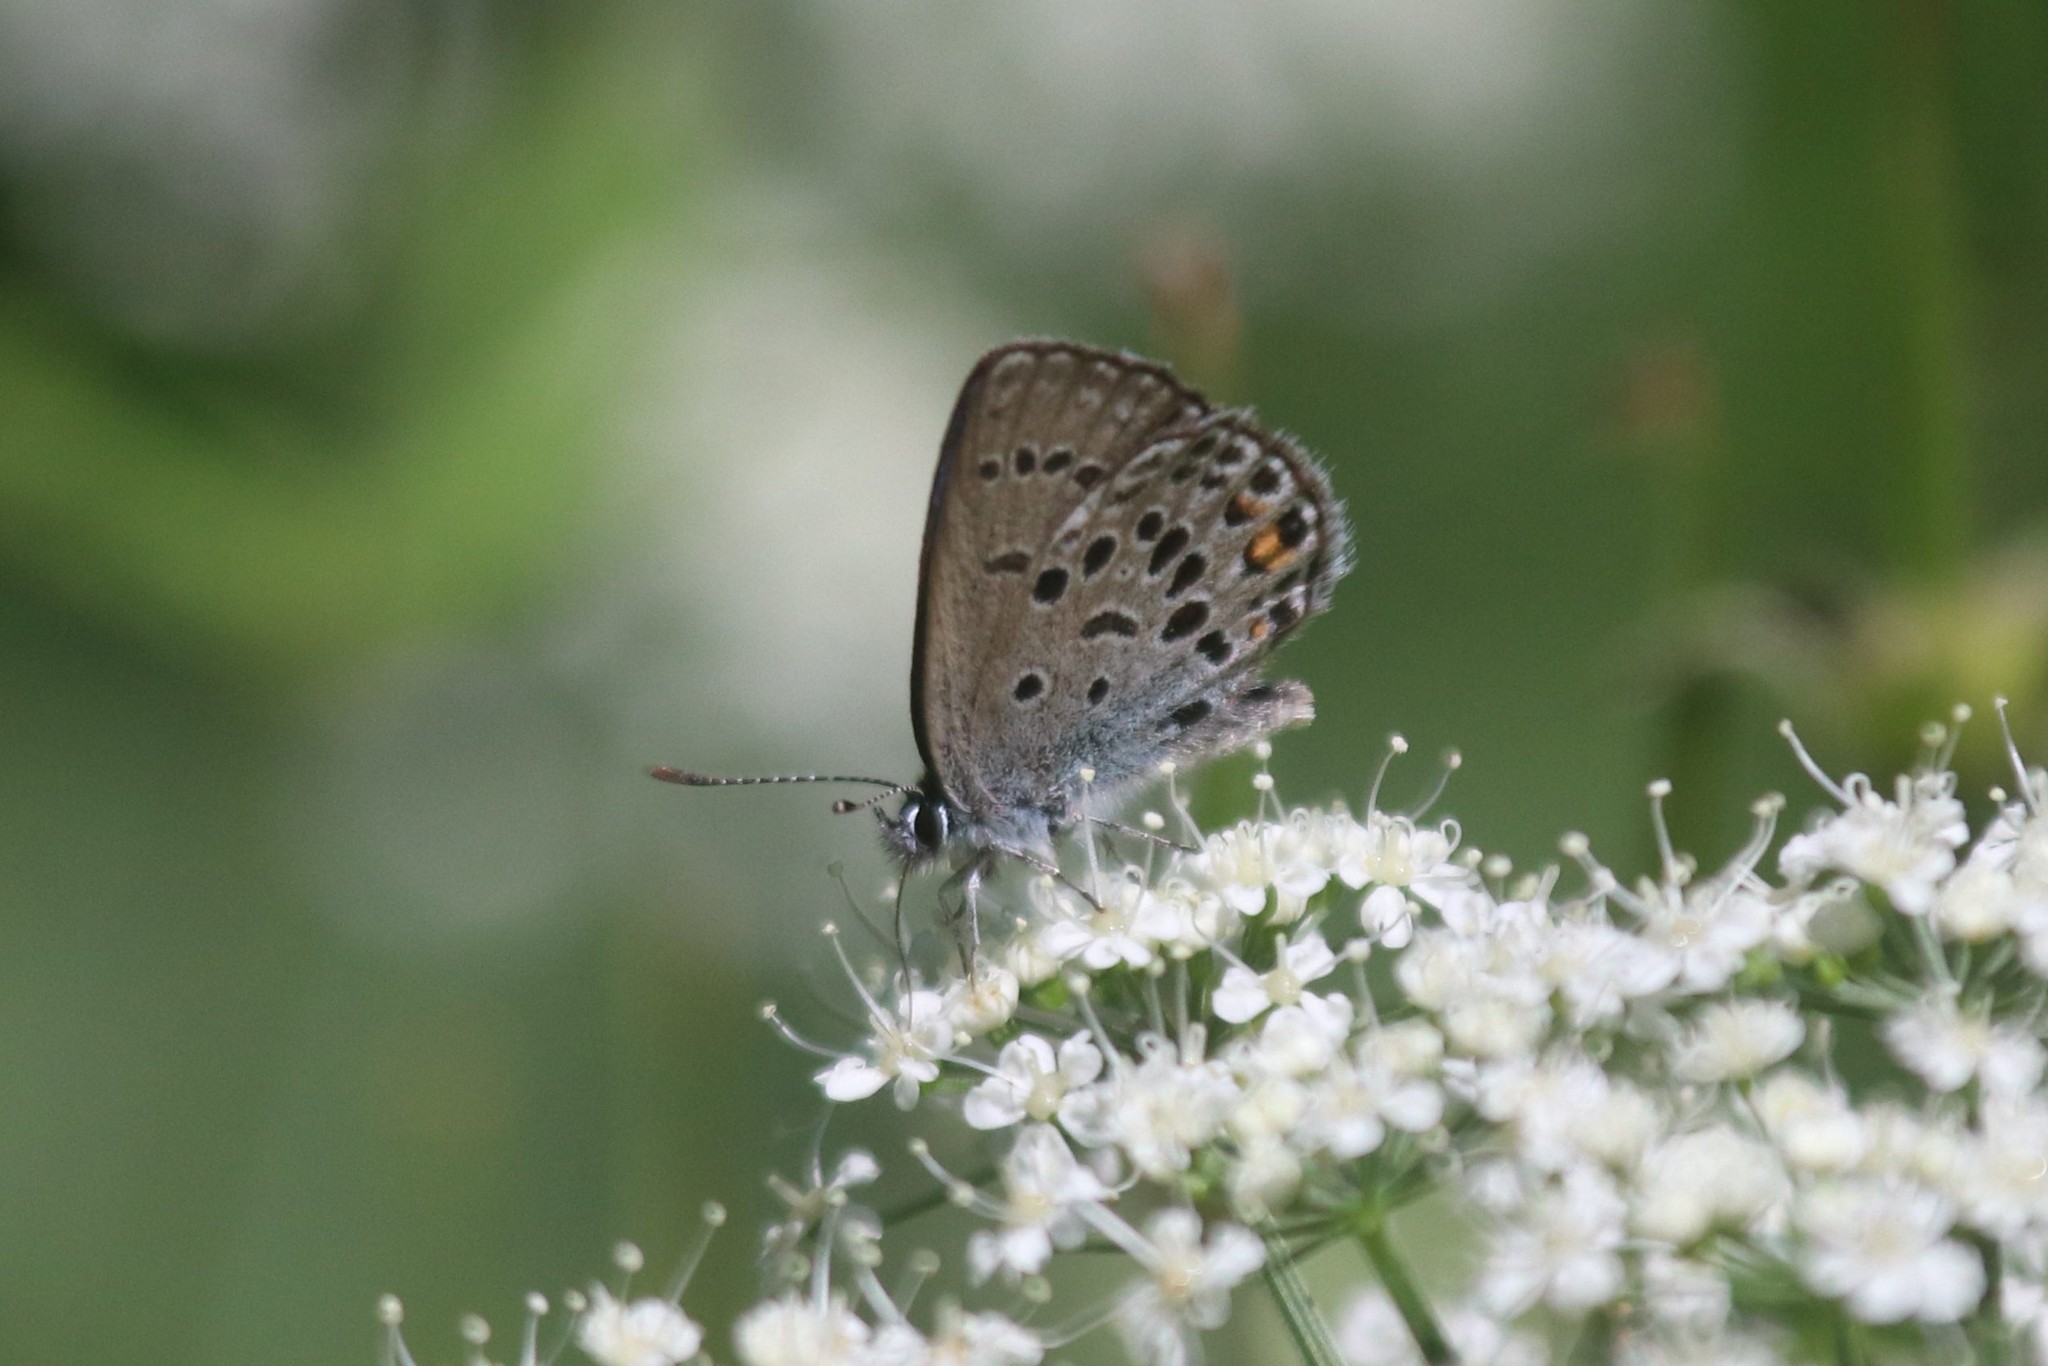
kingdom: Animalia
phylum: Arthropoda
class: Insecta
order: Lepidoptera
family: Lycaenidae
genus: Vacciniina
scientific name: Vacciniina optilete
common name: Cranberry blue
